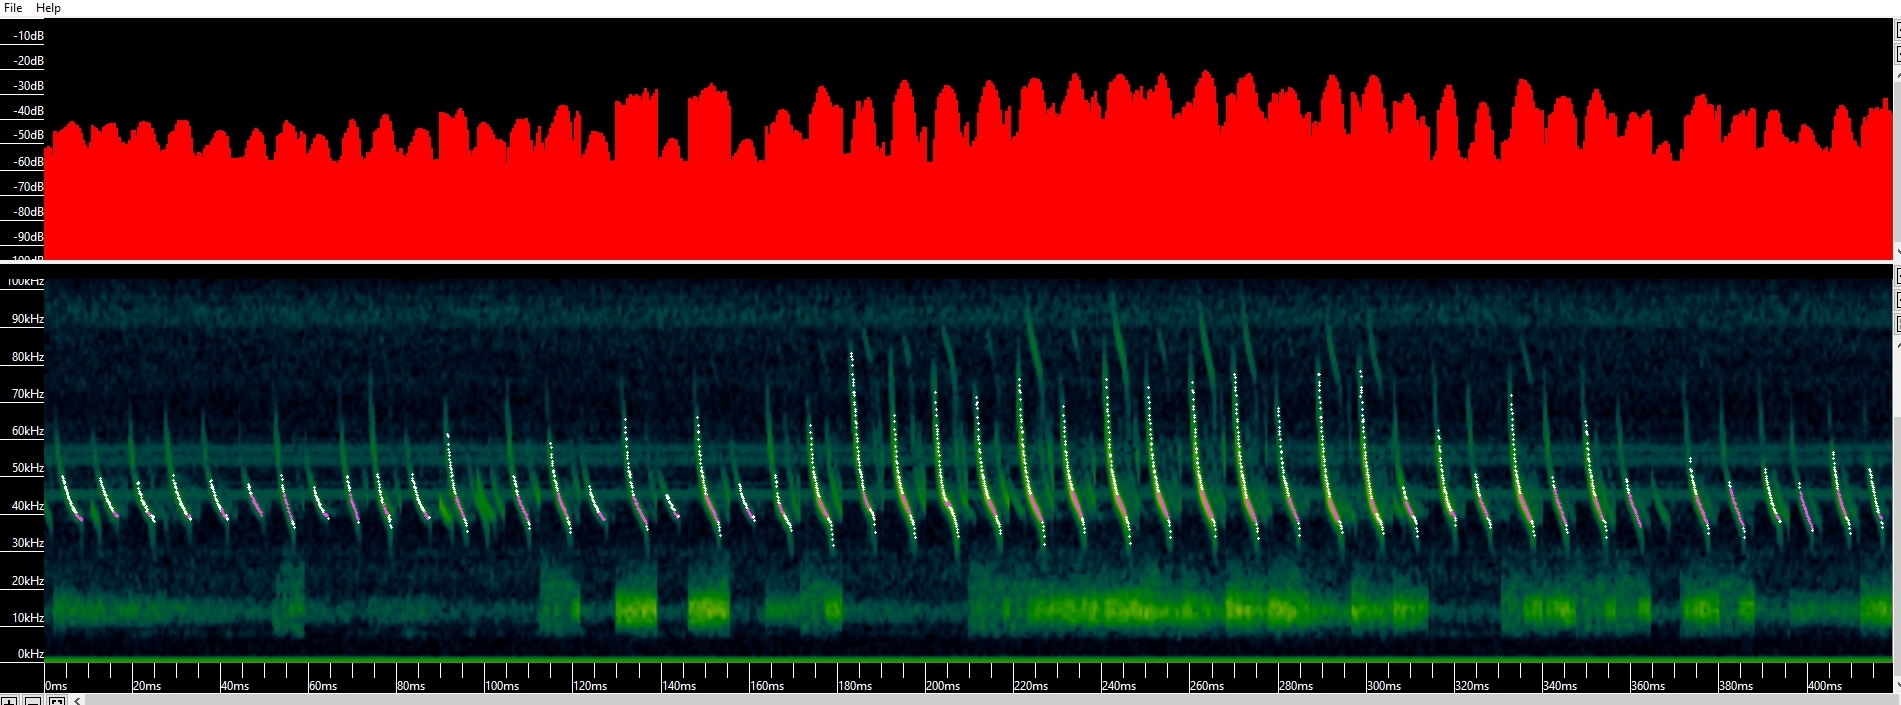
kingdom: Animalia
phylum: Chordata
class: Mammalia
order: Chiroptera
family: Vespertilionidae
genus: Myotis
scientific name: Myotis lucifugus
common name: Little brown bat
